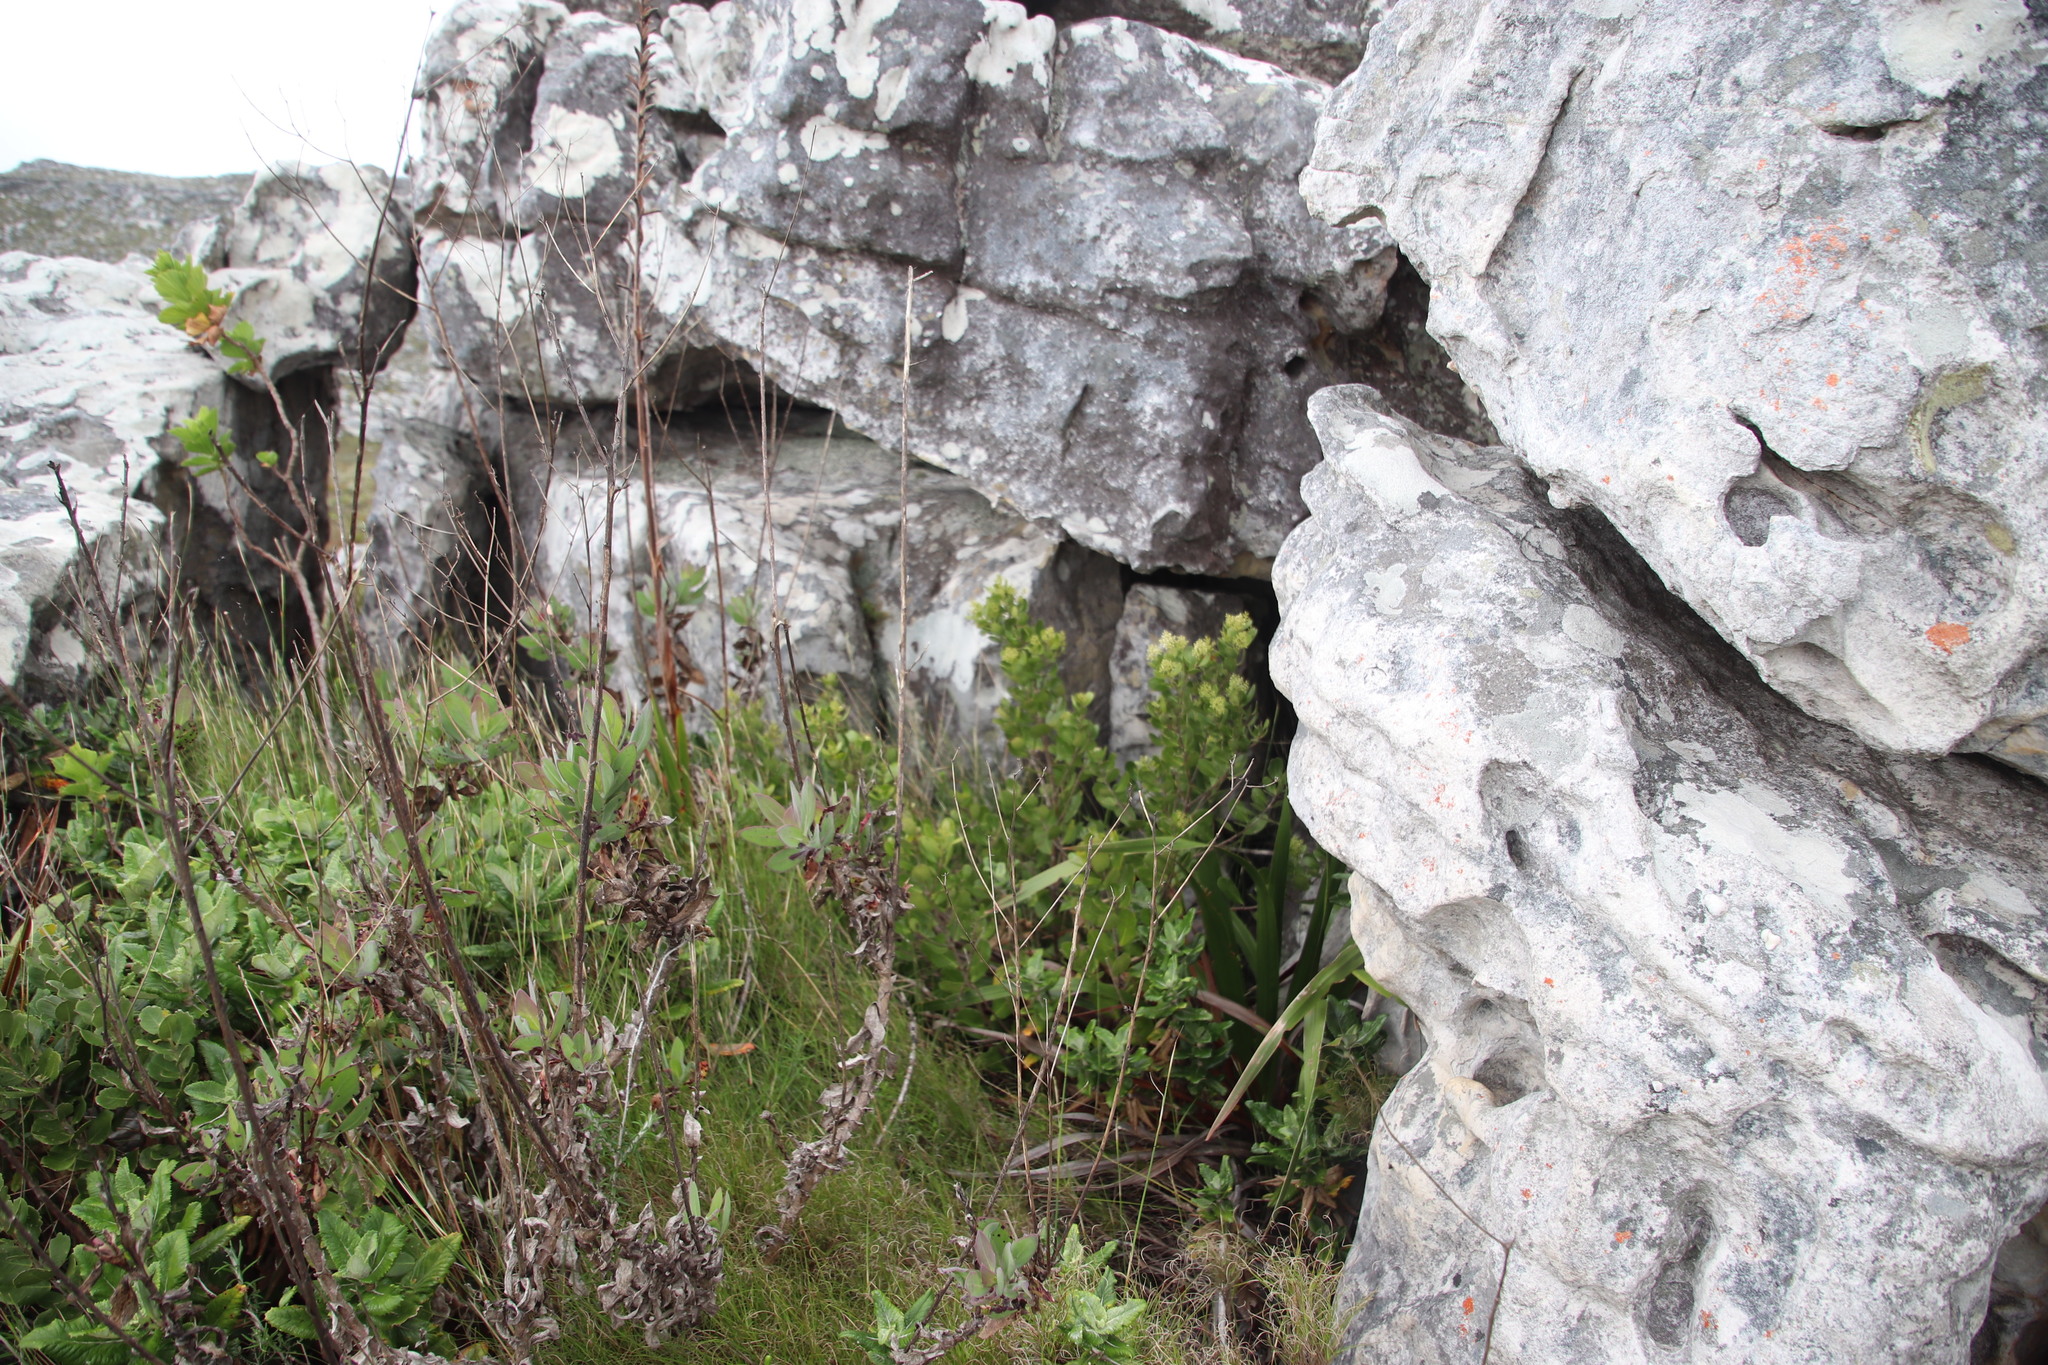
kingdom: Plantae
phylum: Tracheophyta
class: Magnoliopsida
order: Lamiales
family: Oleaceae
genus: Olea
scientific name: Olea capensis
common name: Black ironwood
